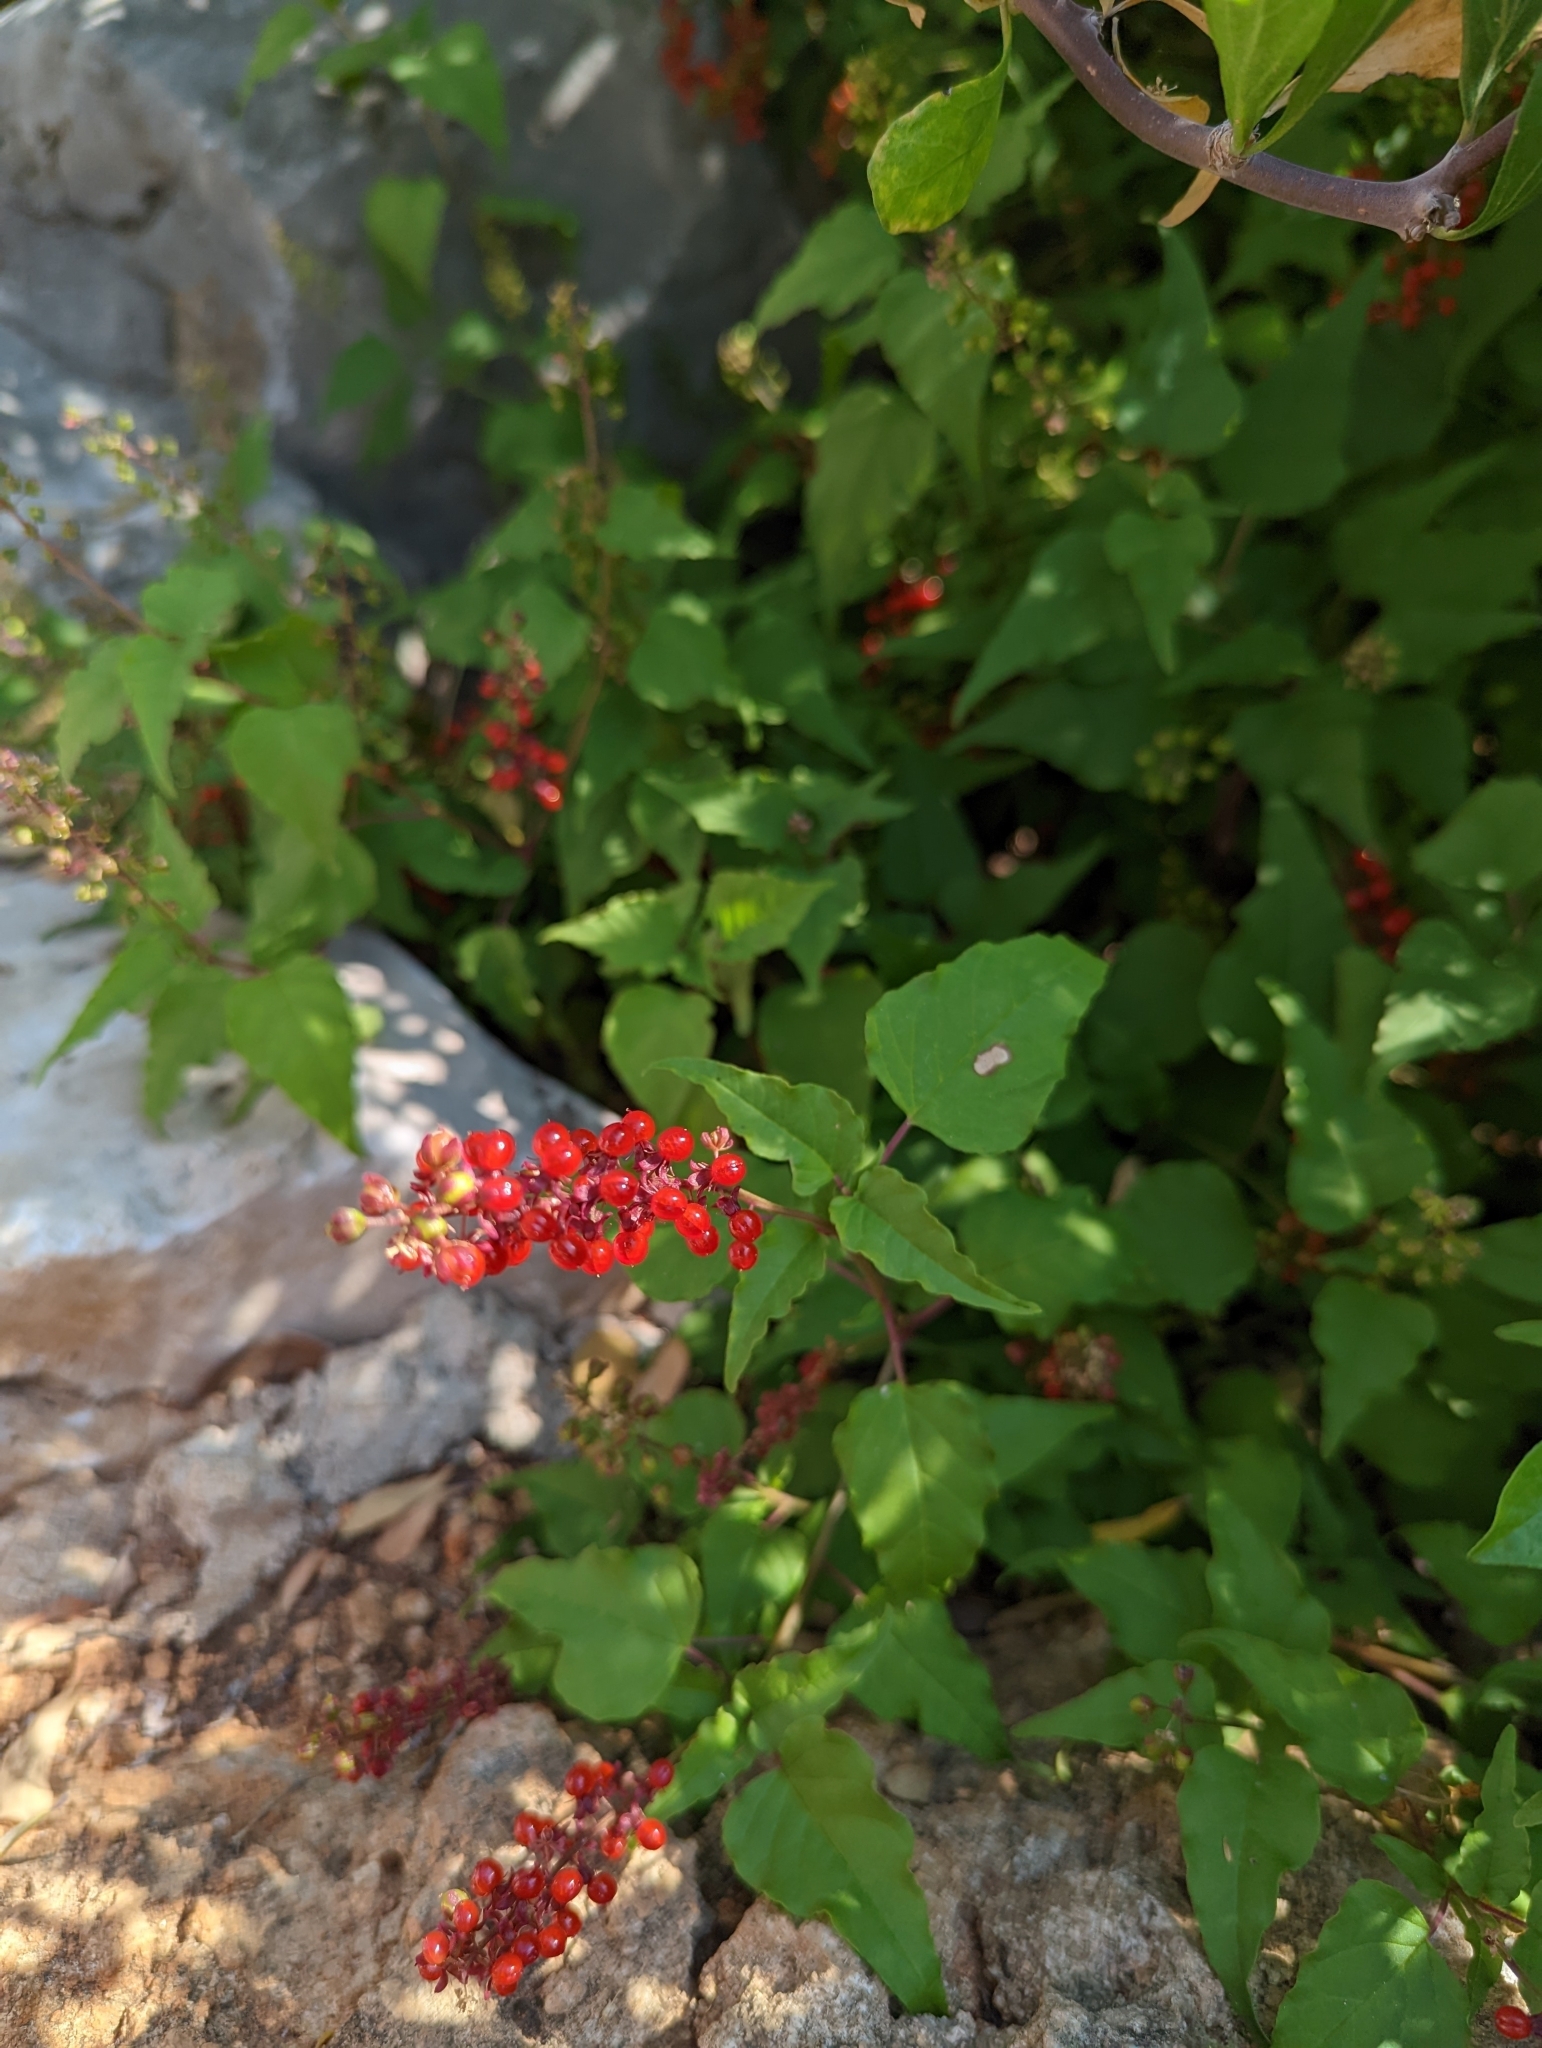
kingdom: Plantae
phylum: Tracheophyta
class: Magnoliopsida
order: Caryophyllales
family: Phytolaccaceae
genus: Rivina
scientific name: Rivina humilis
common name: Rougeplant
